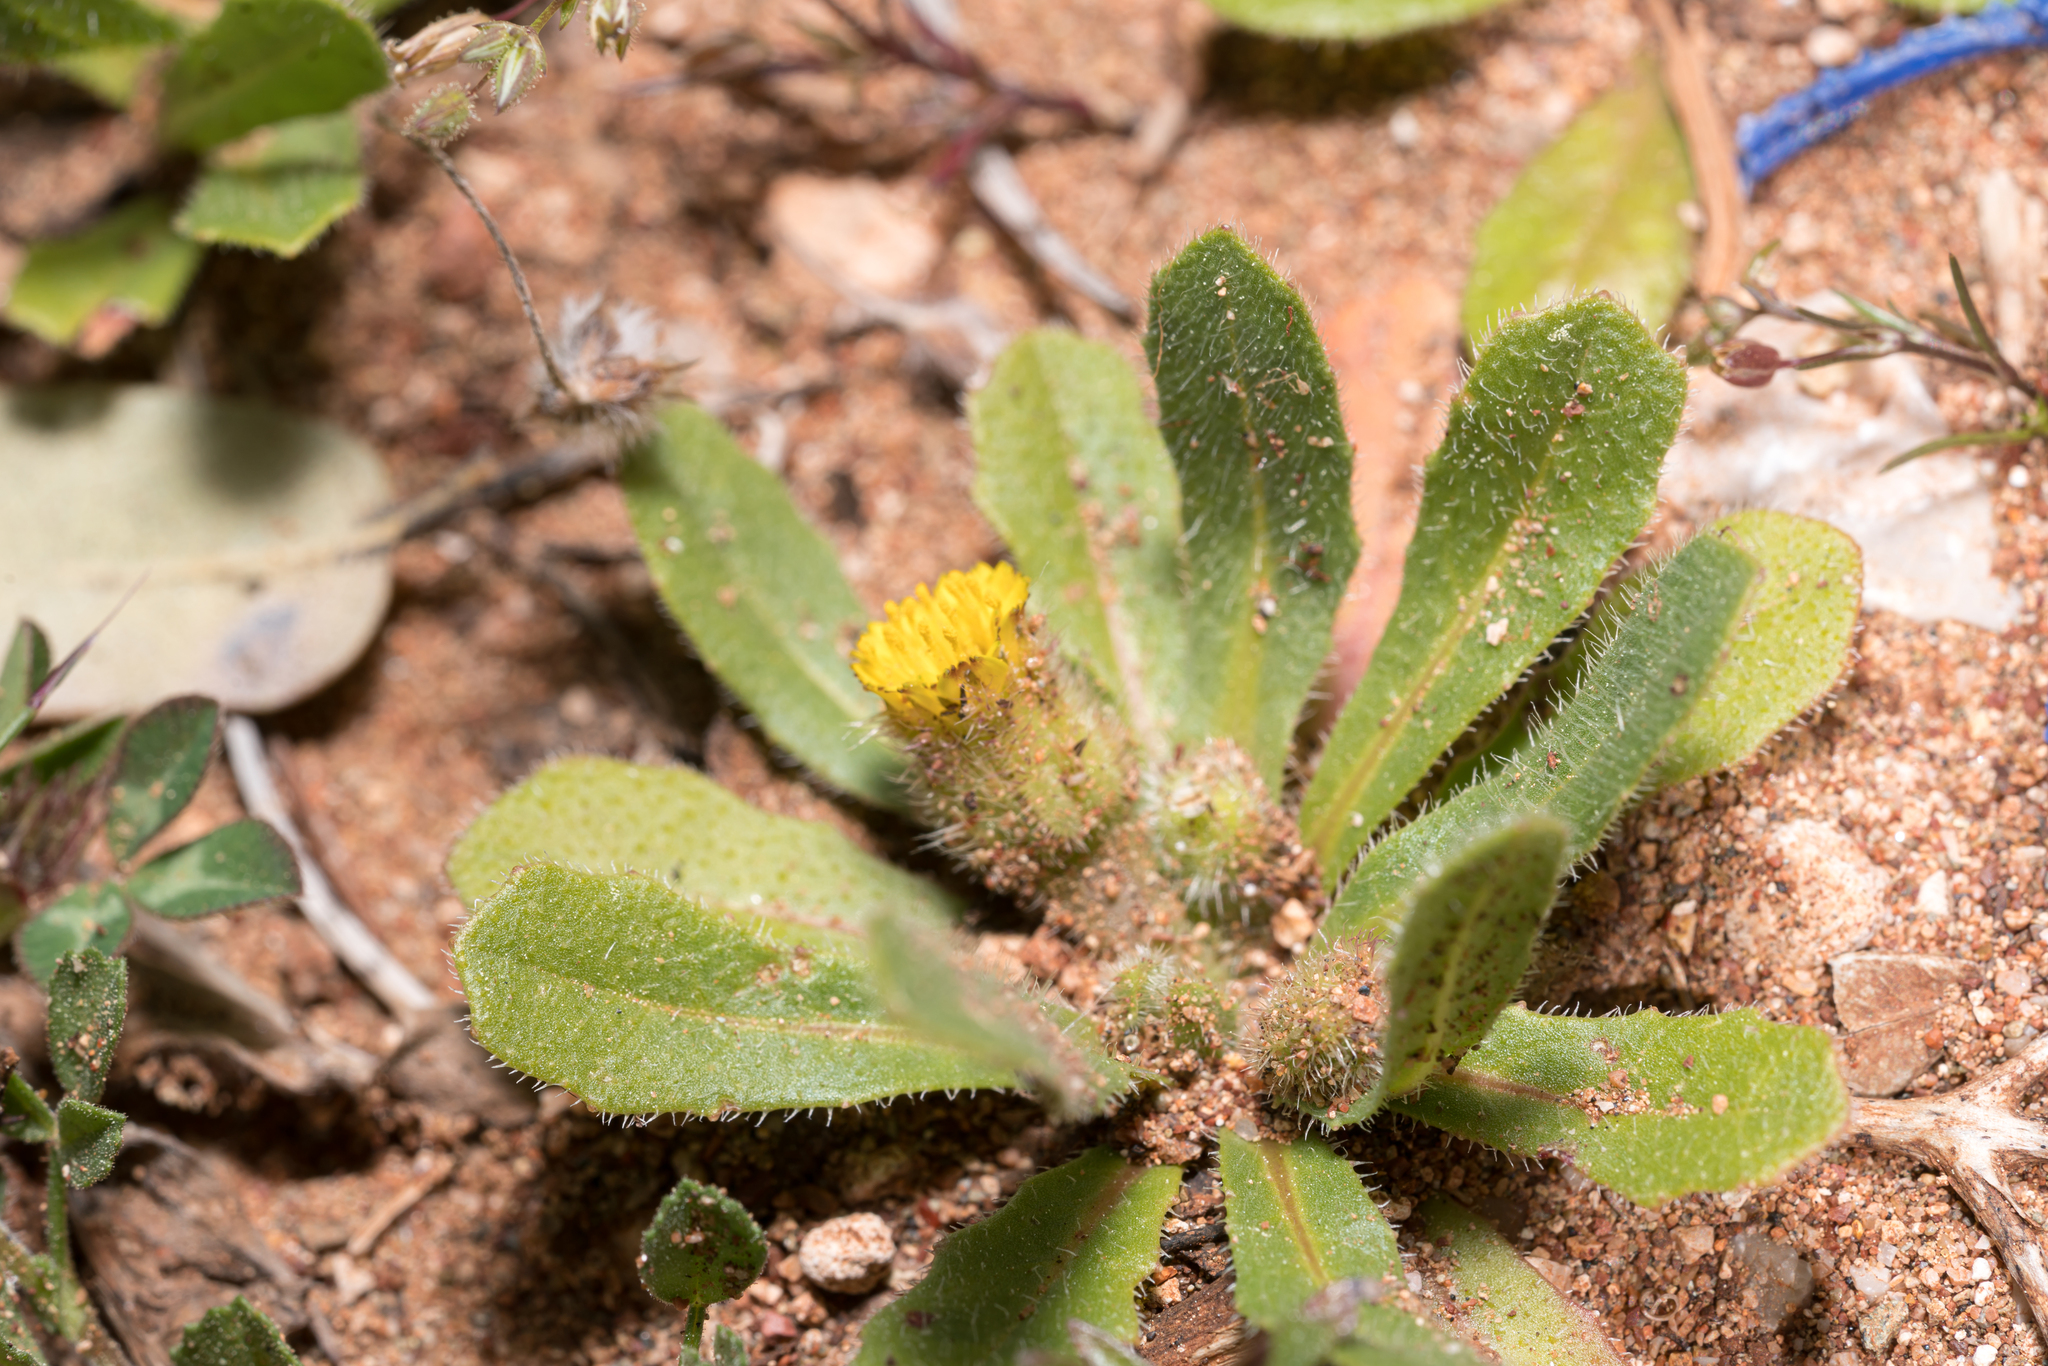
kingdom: Plantae
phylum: Tracheophyta
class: Magnoliopsida
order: Asterales
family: Asteraceae
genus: Hedypnois
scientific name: Hedypnois rhagadioloides
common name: Cretan weed
